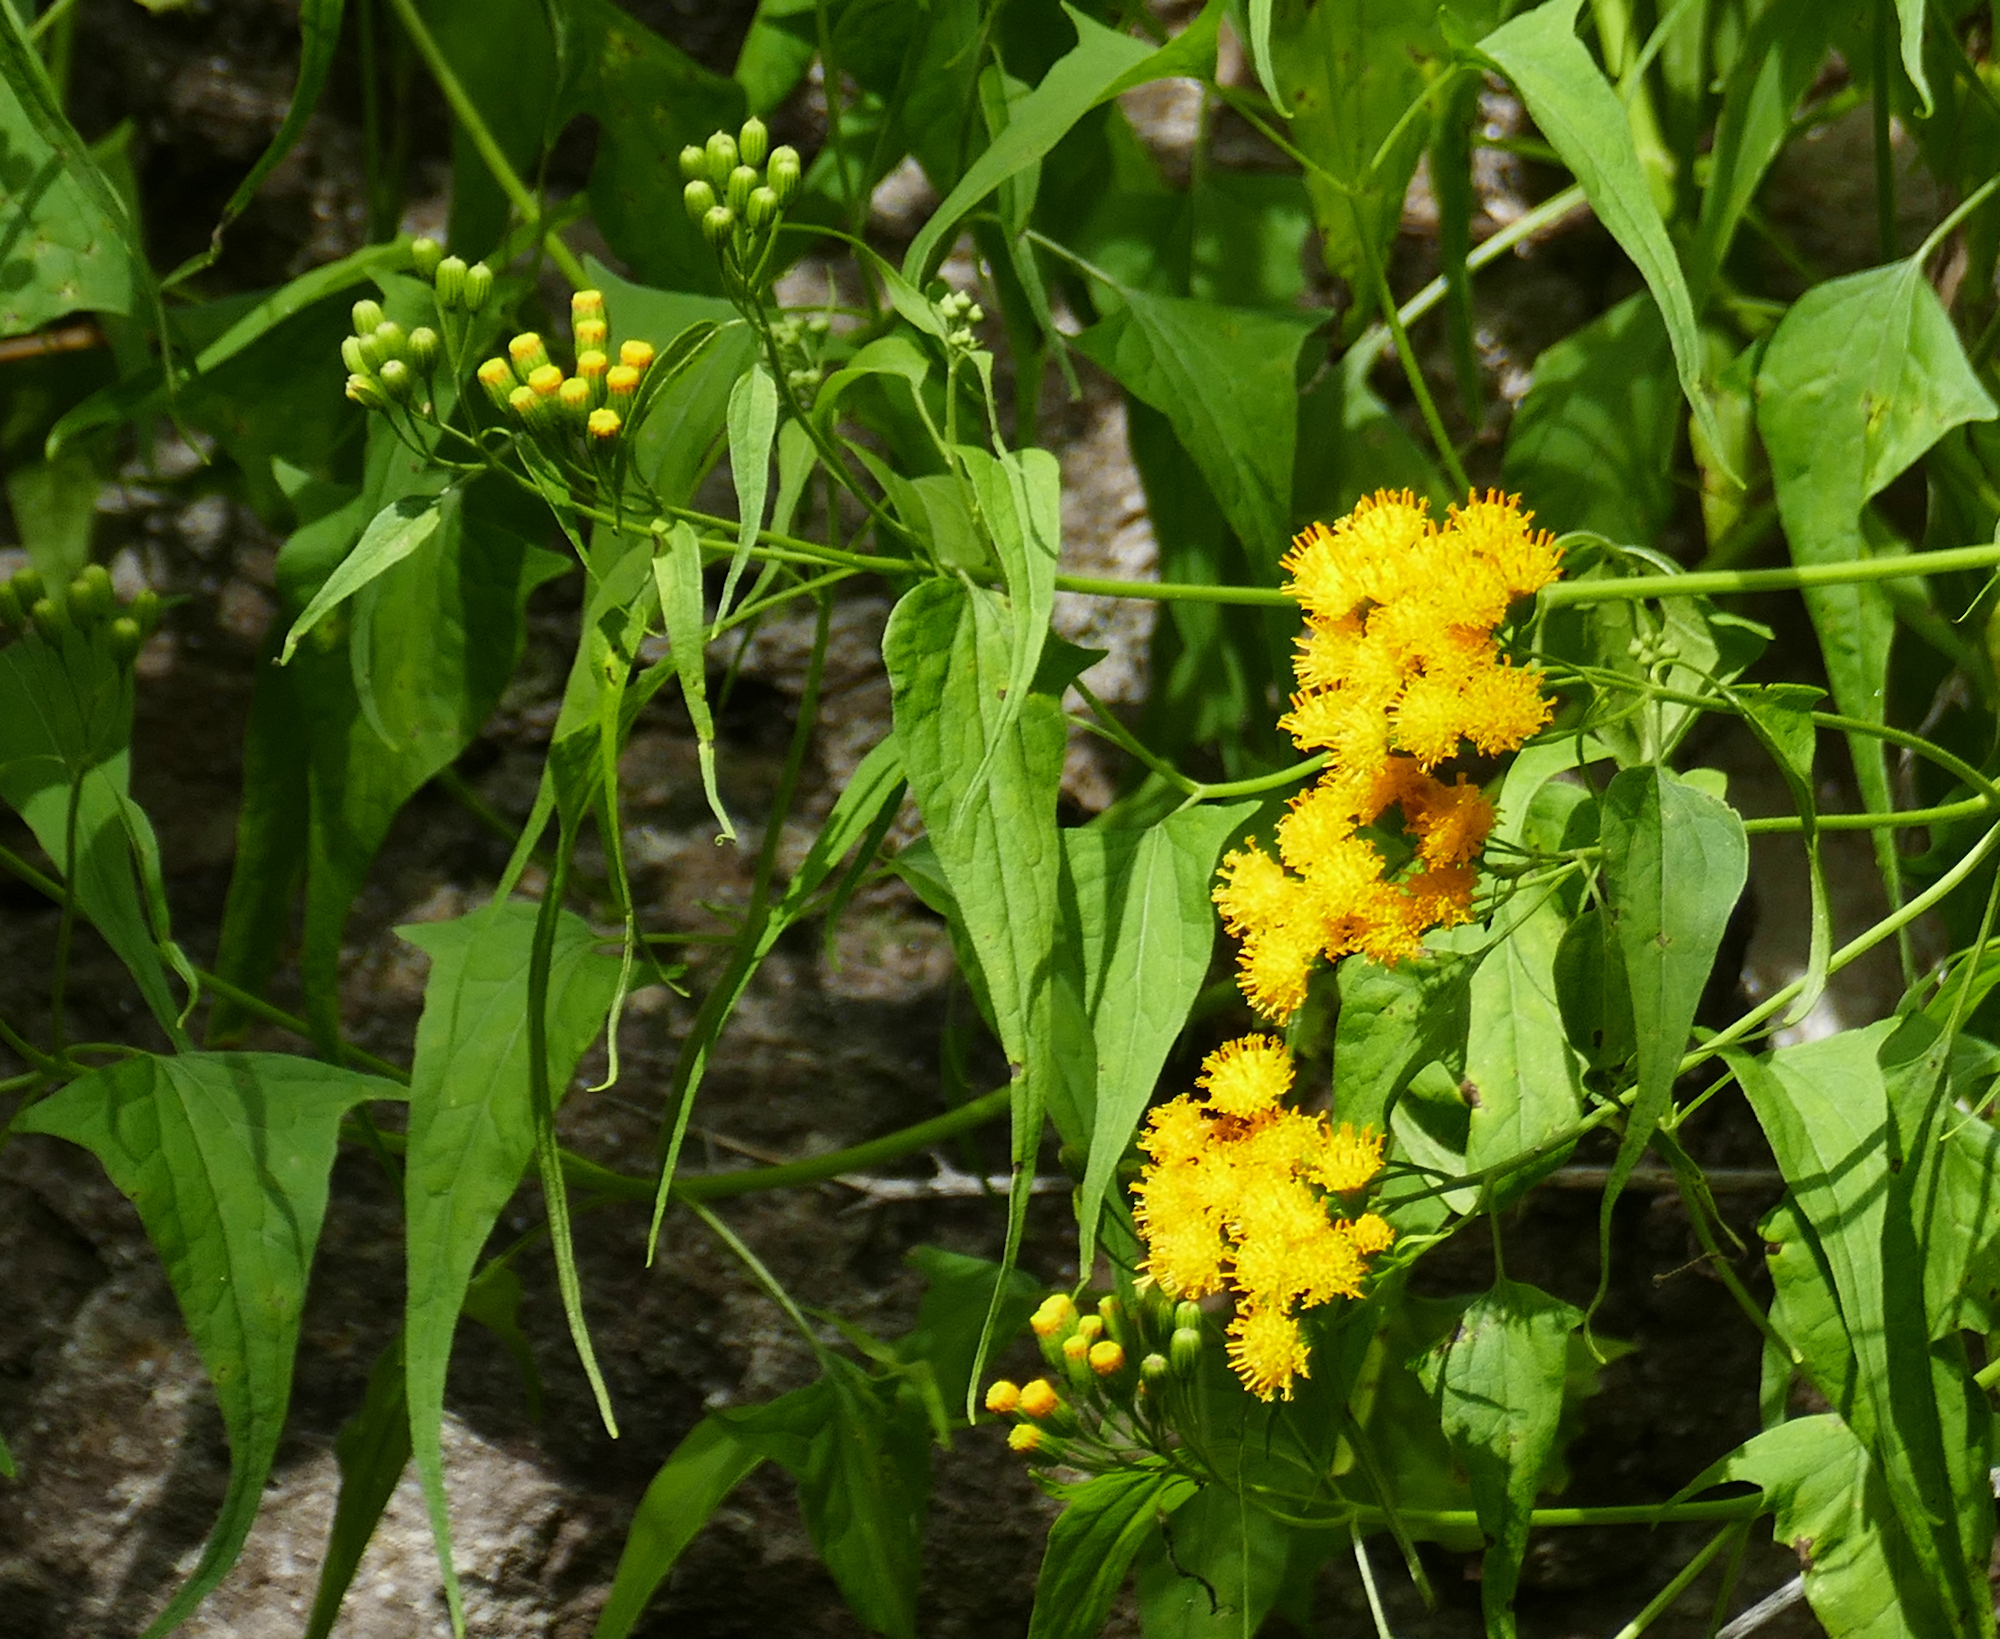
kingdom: Plantae
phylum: Tracheophyta
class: Magnoliopsida
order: Asterales
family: Asteraceae
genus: Pericome
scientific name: Pericome caudata
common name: Taperleaf
